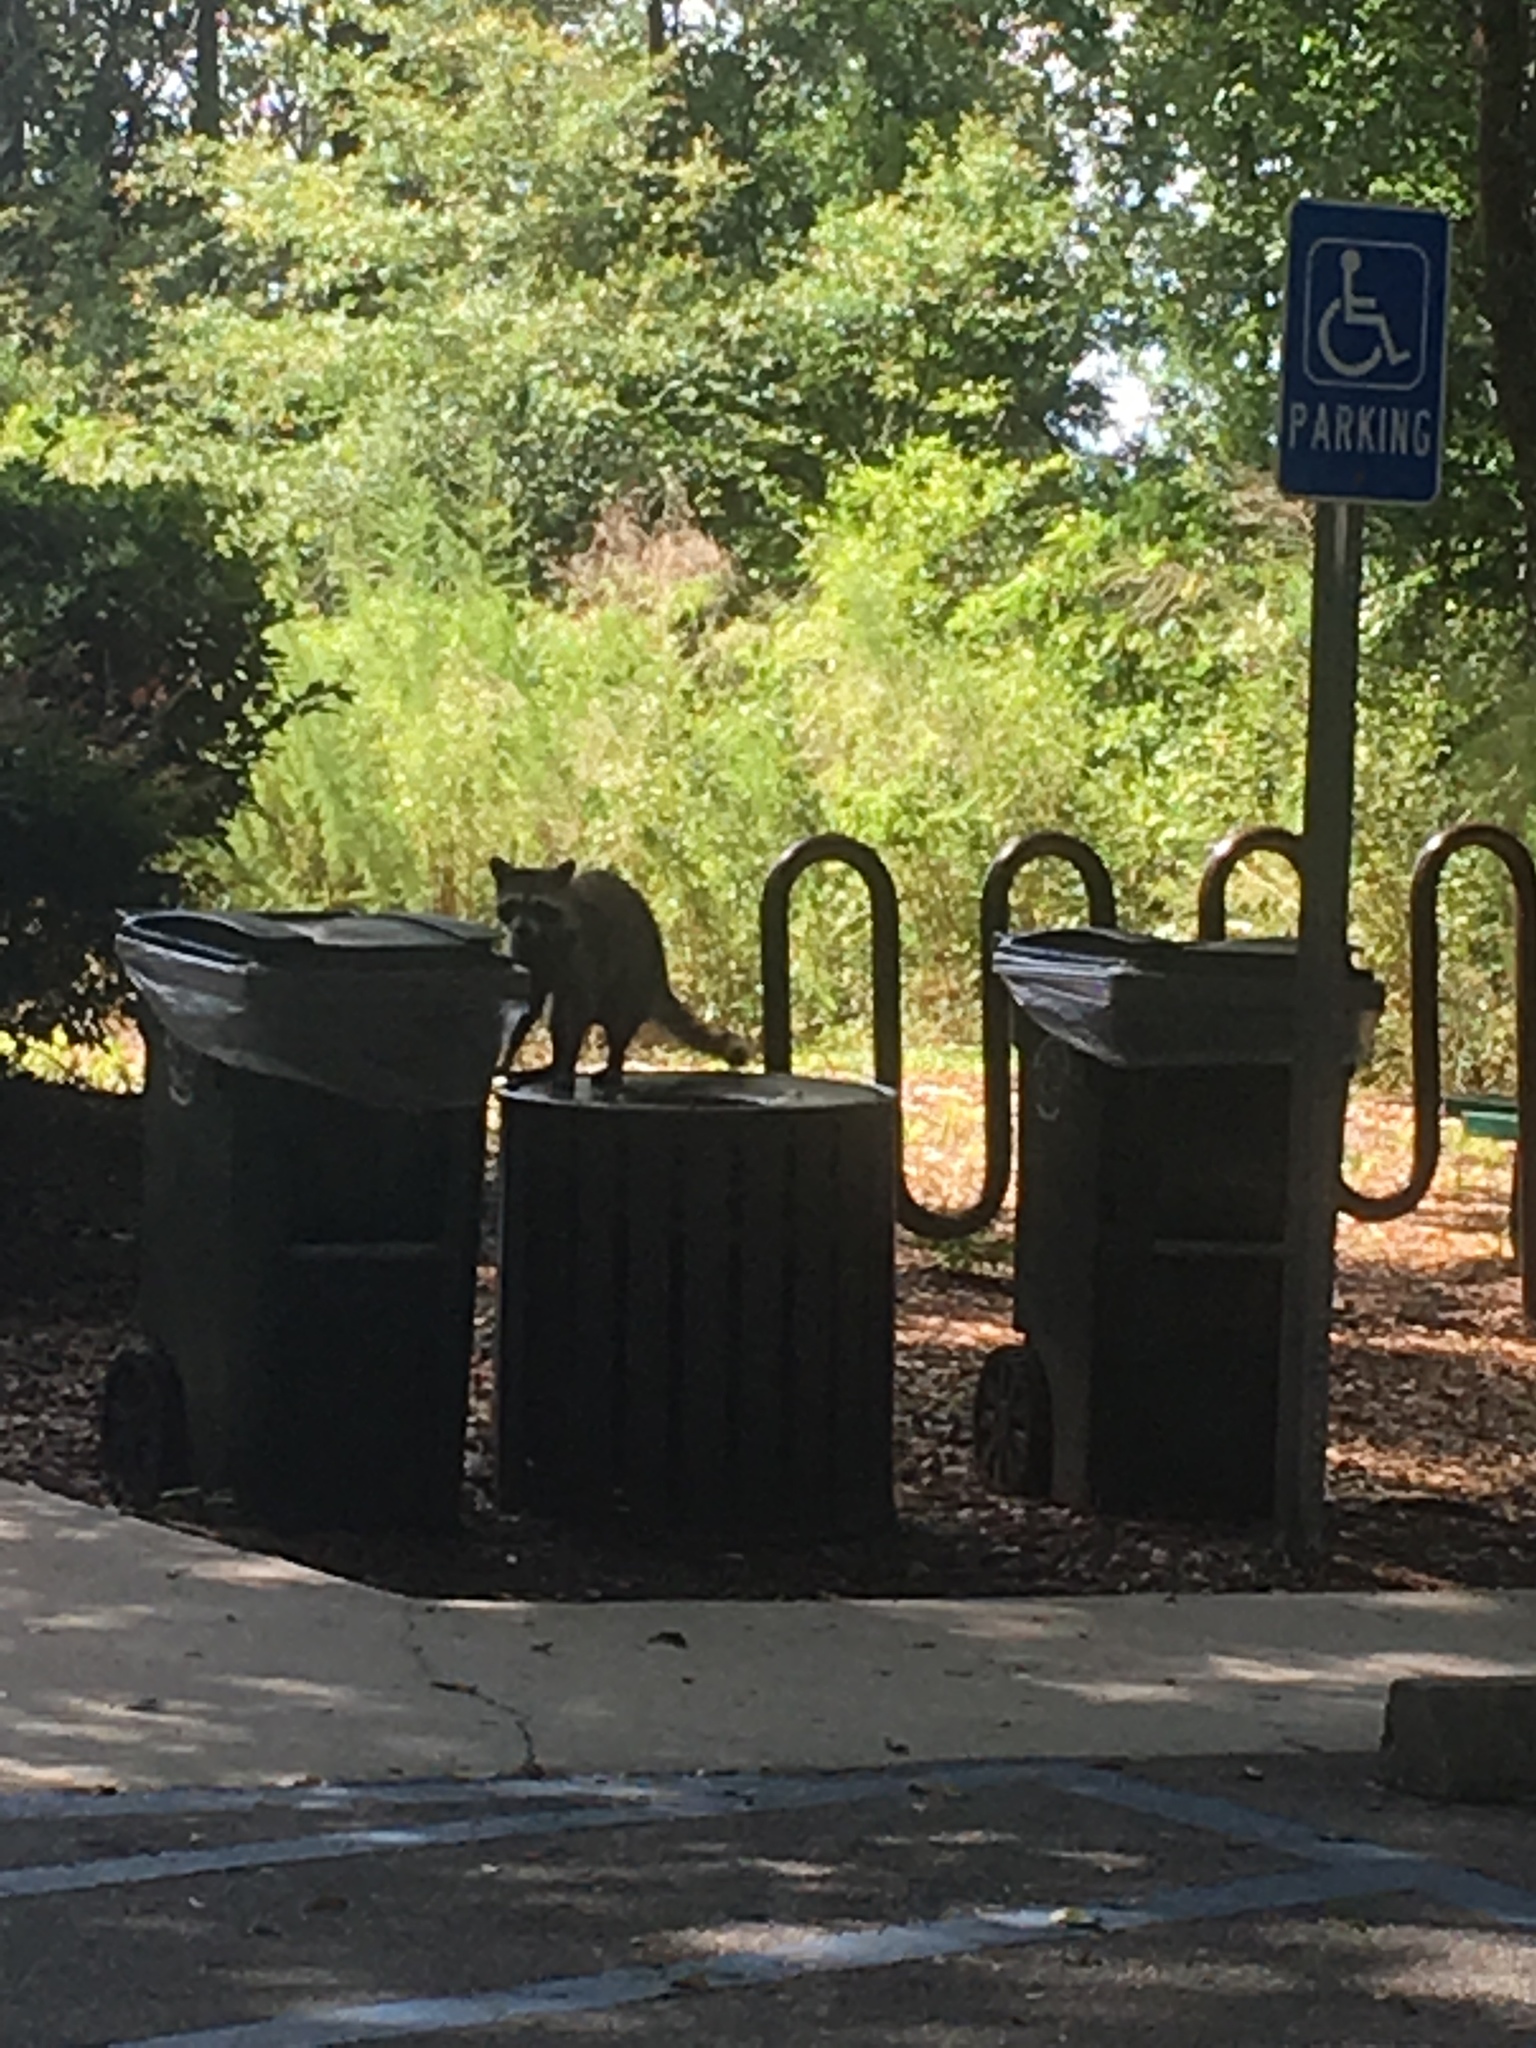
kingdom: Animalia
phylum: Chordata
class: Mammalia
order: Carnivora
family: Procyonidae
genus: Procyon
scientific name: Procyon lotor
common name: Raccoon
